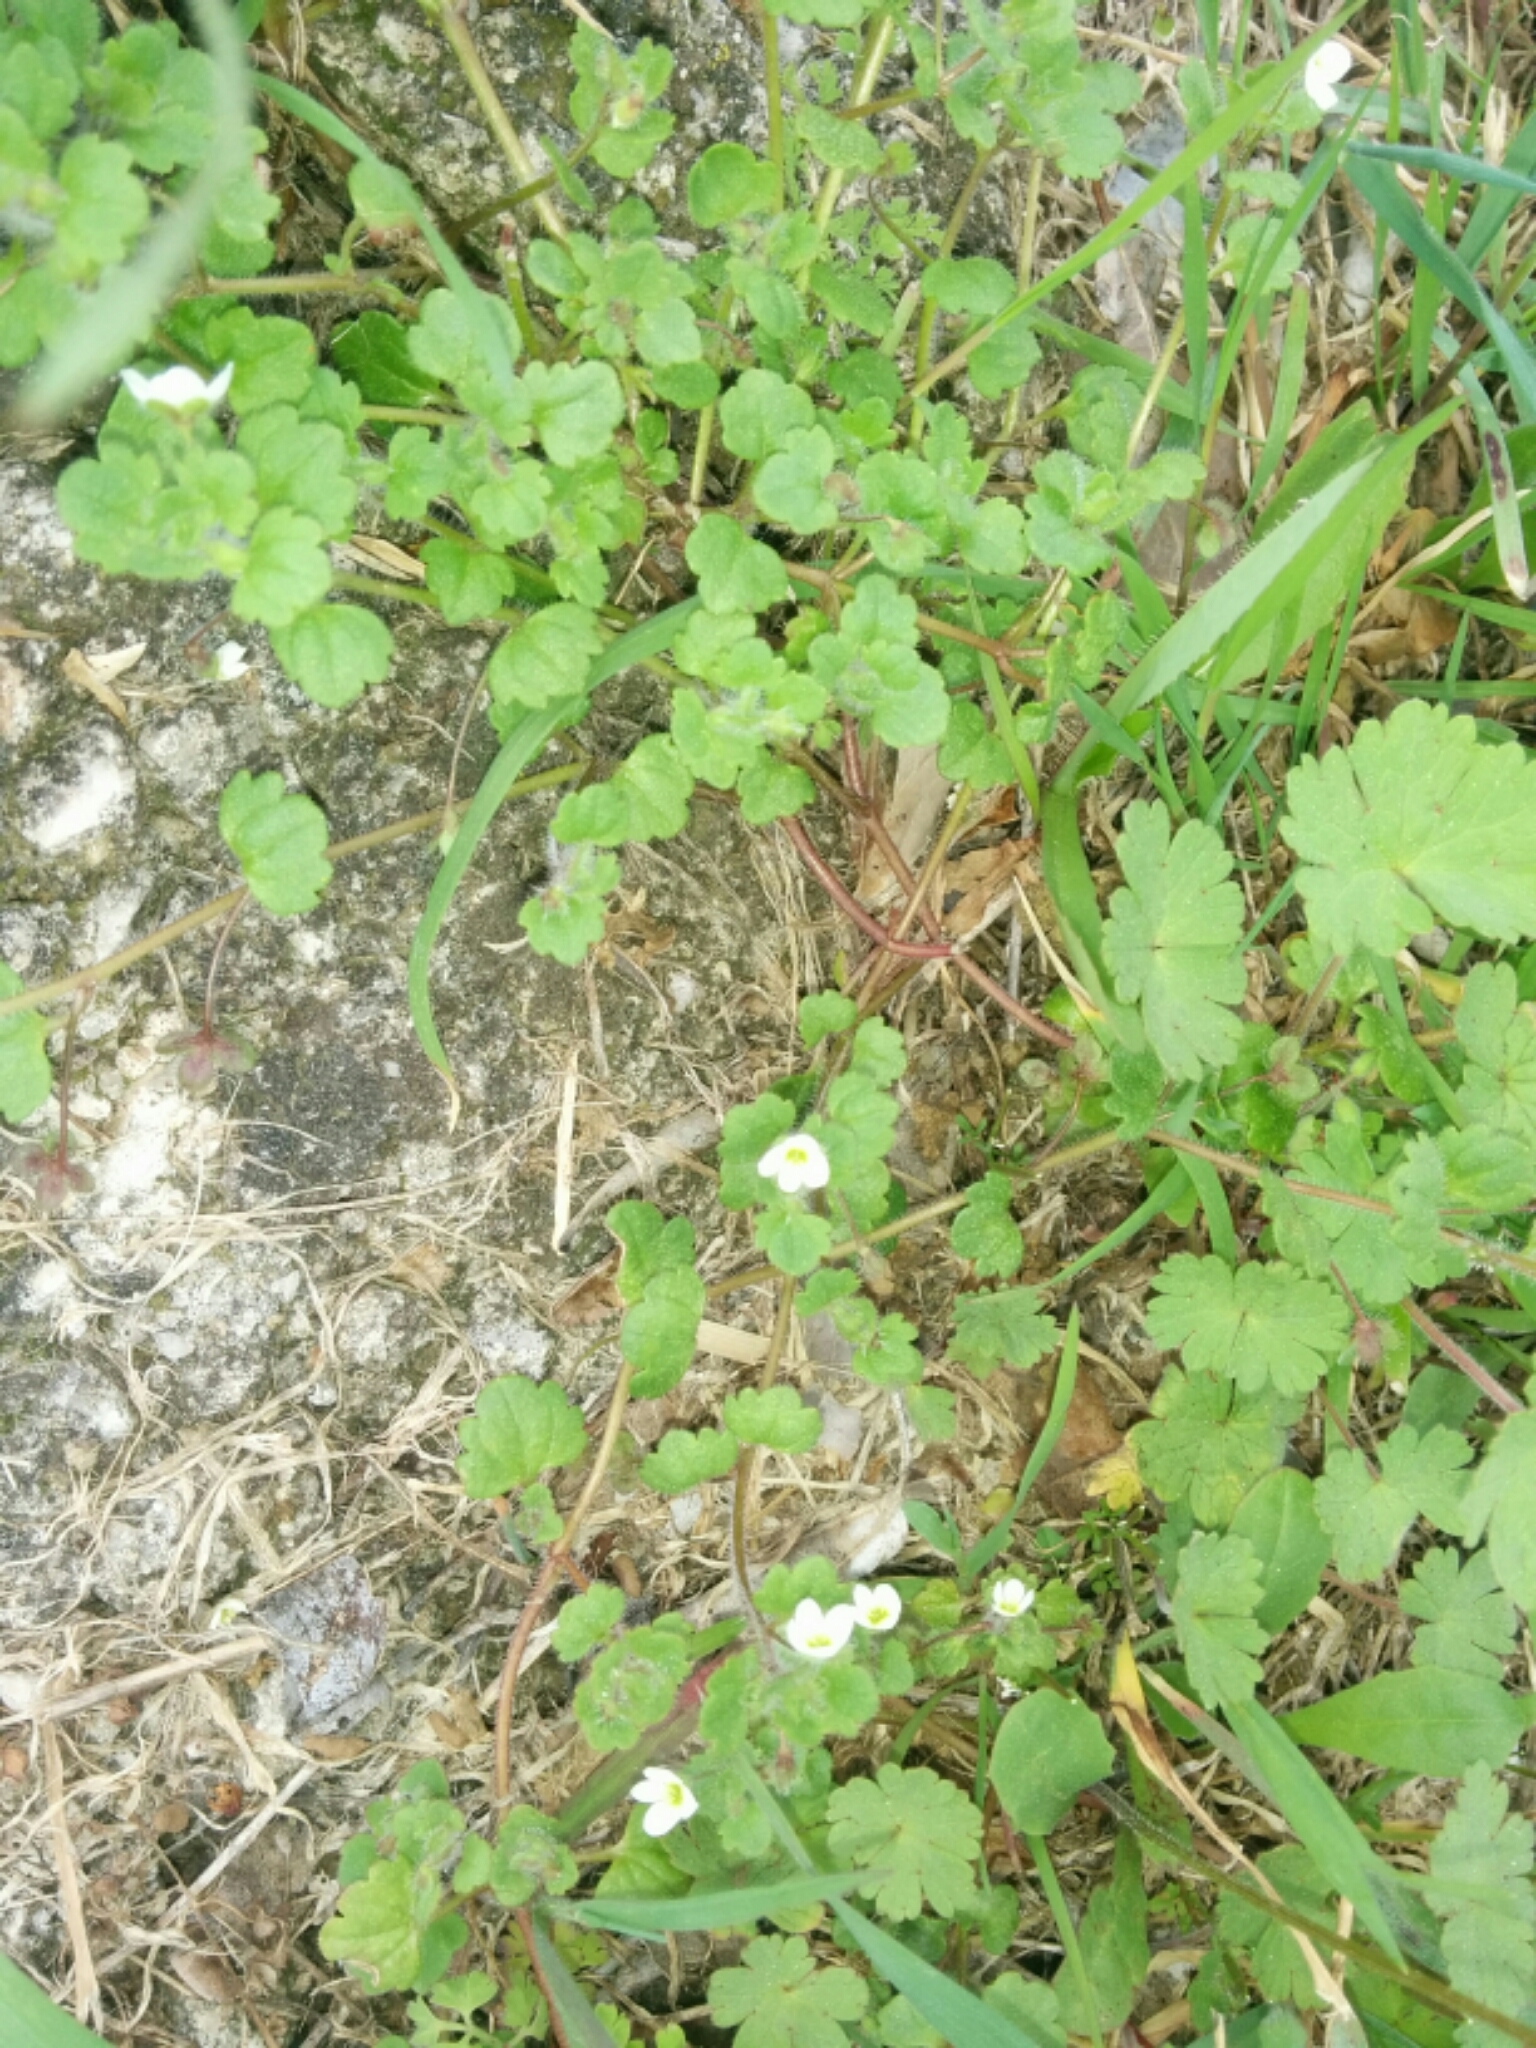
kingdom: Plantae
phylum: Tracheophyta
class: Magnoliopsida
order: Lamiales
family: Plantaginaceae
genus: Veronica
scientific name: Veronica cymbalaria
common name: Pale speedwell
